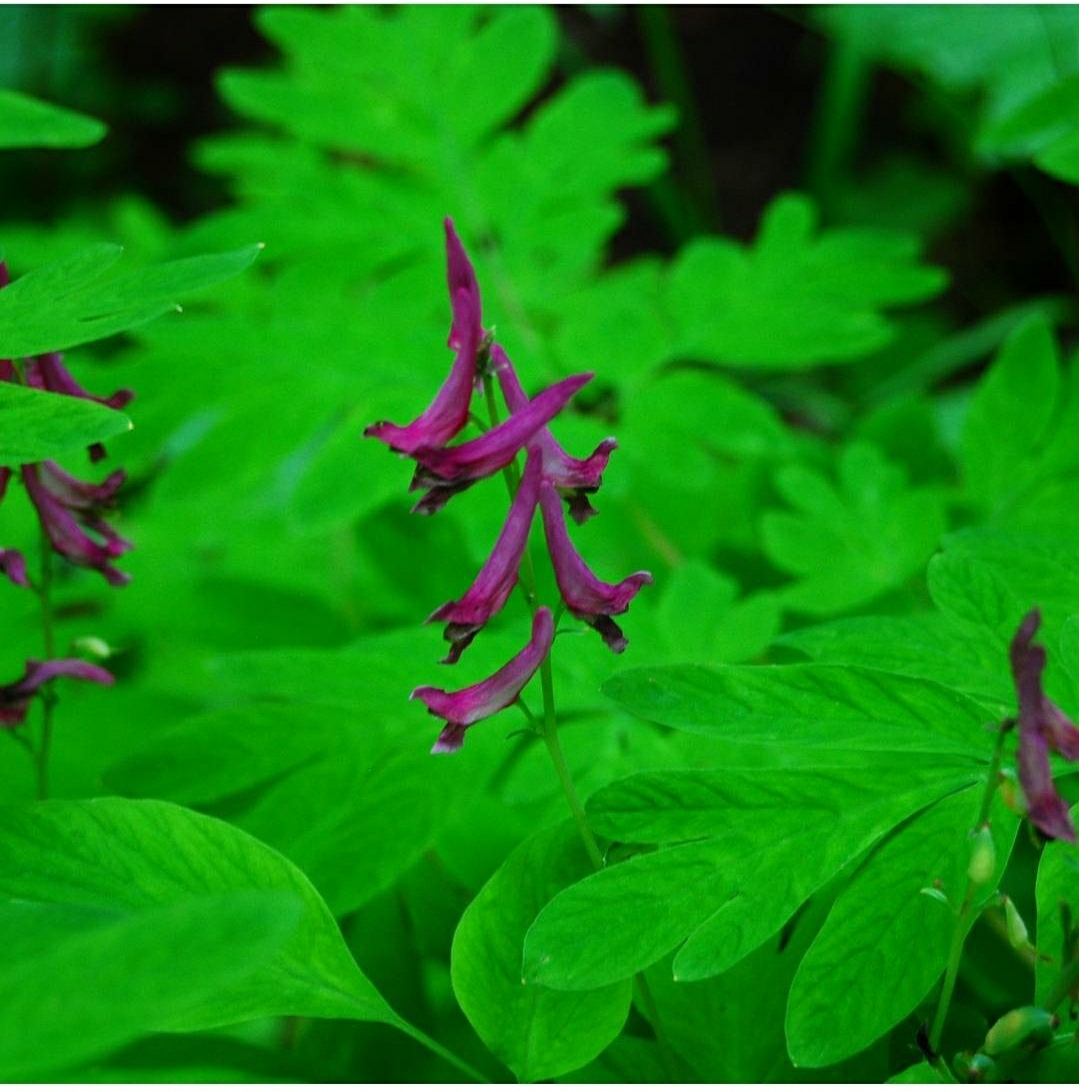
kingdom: Plantae
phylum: Tracheophyta
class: Magnoliopsida
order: Ranunculales
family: Papaveraceae
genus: Corydalis
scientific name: Corydalis scouleri
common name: Scouler's corydalis
